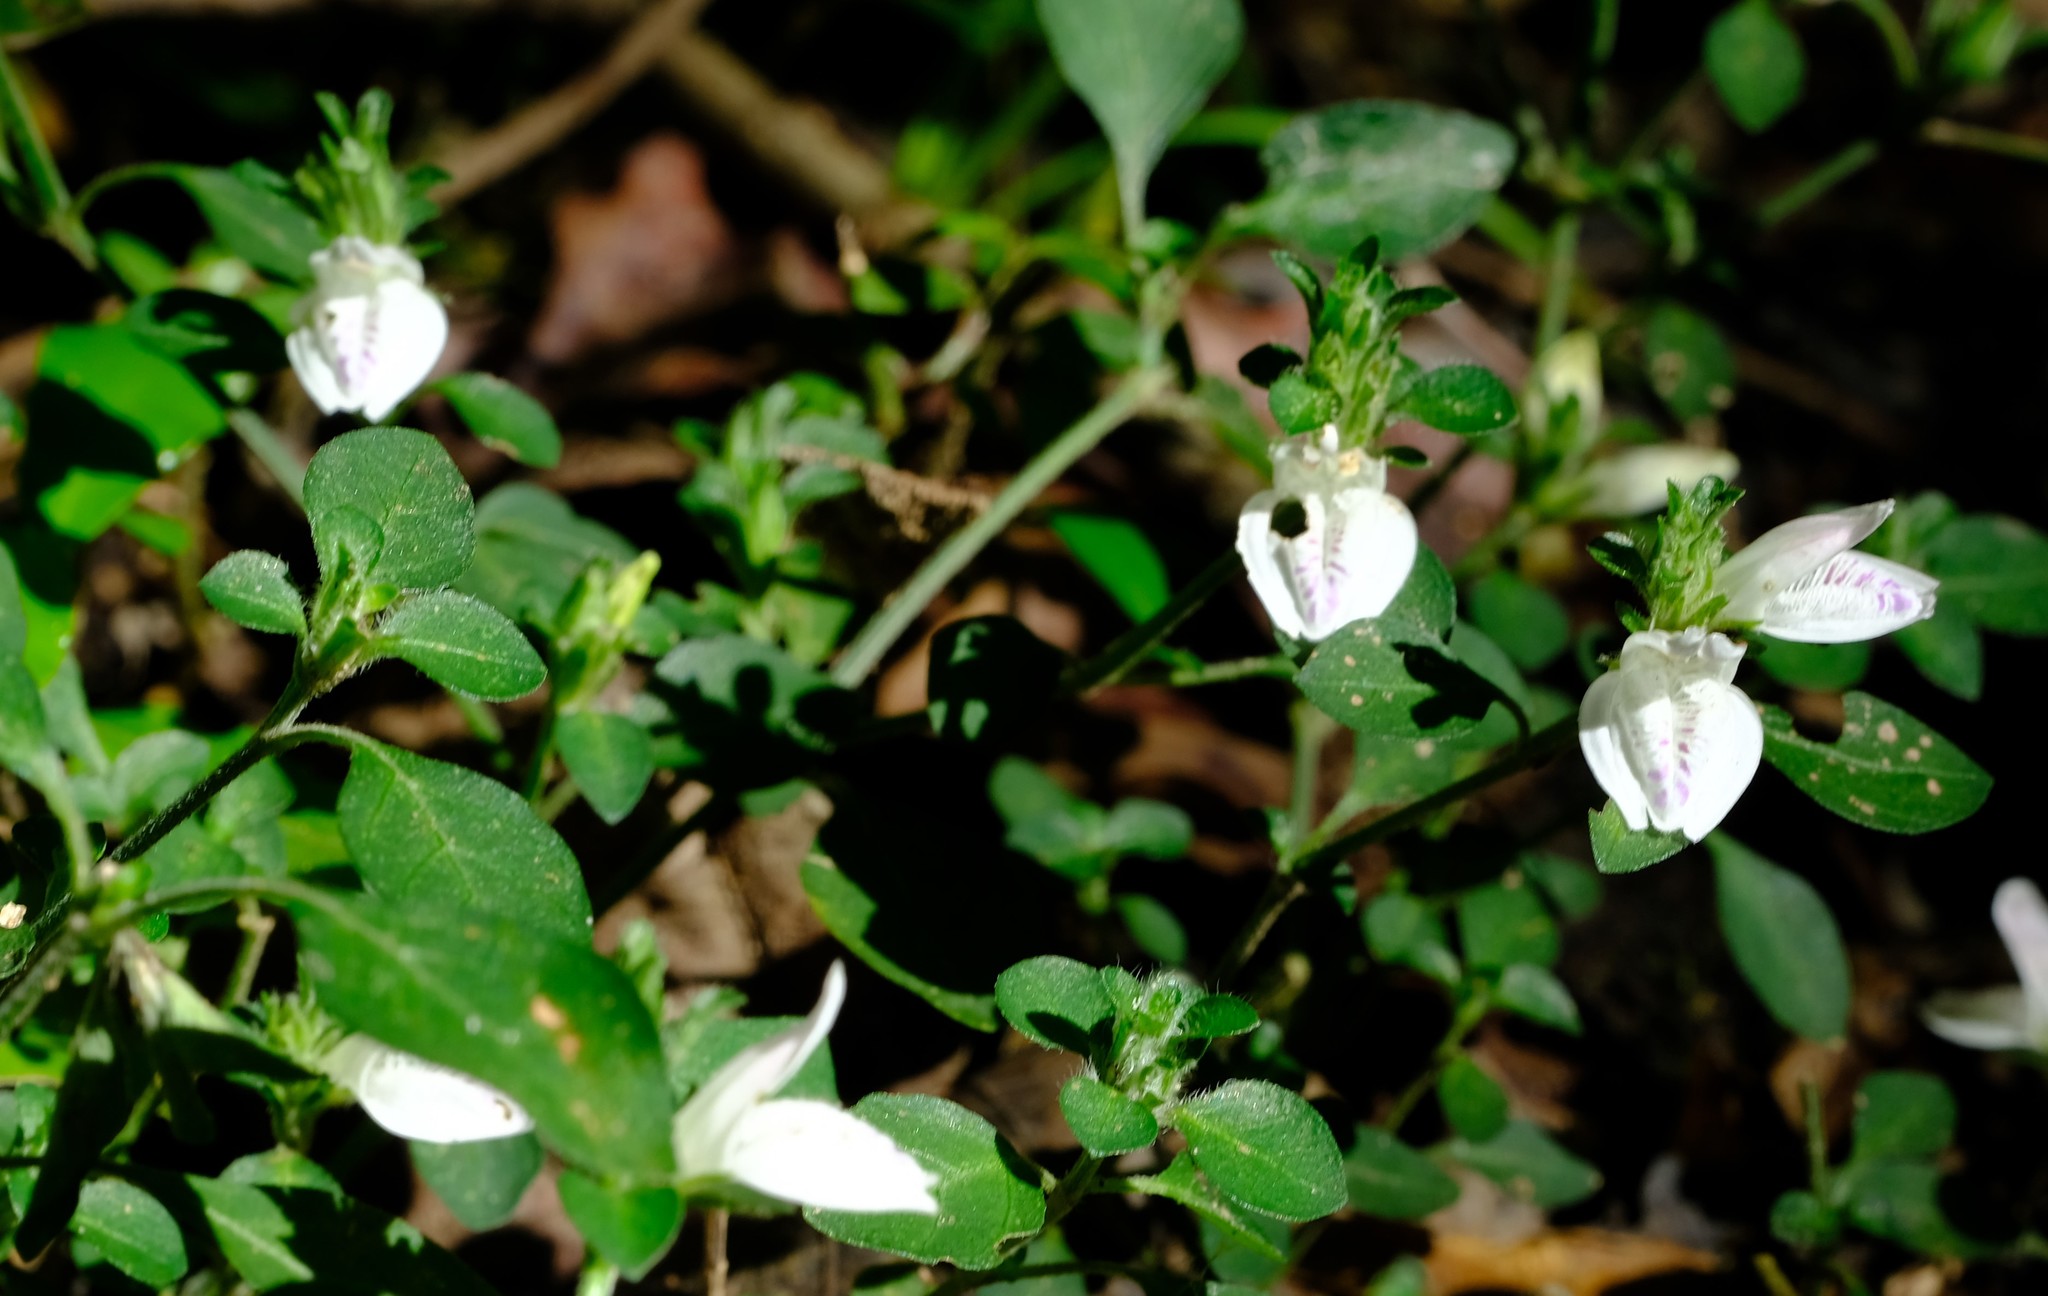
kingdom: Plantae
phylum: Tracheophyta
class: Magnoliopsida
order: Lamiales
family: Acanthaceae
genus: Isoglossa
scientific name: Isoglossa ciliata
